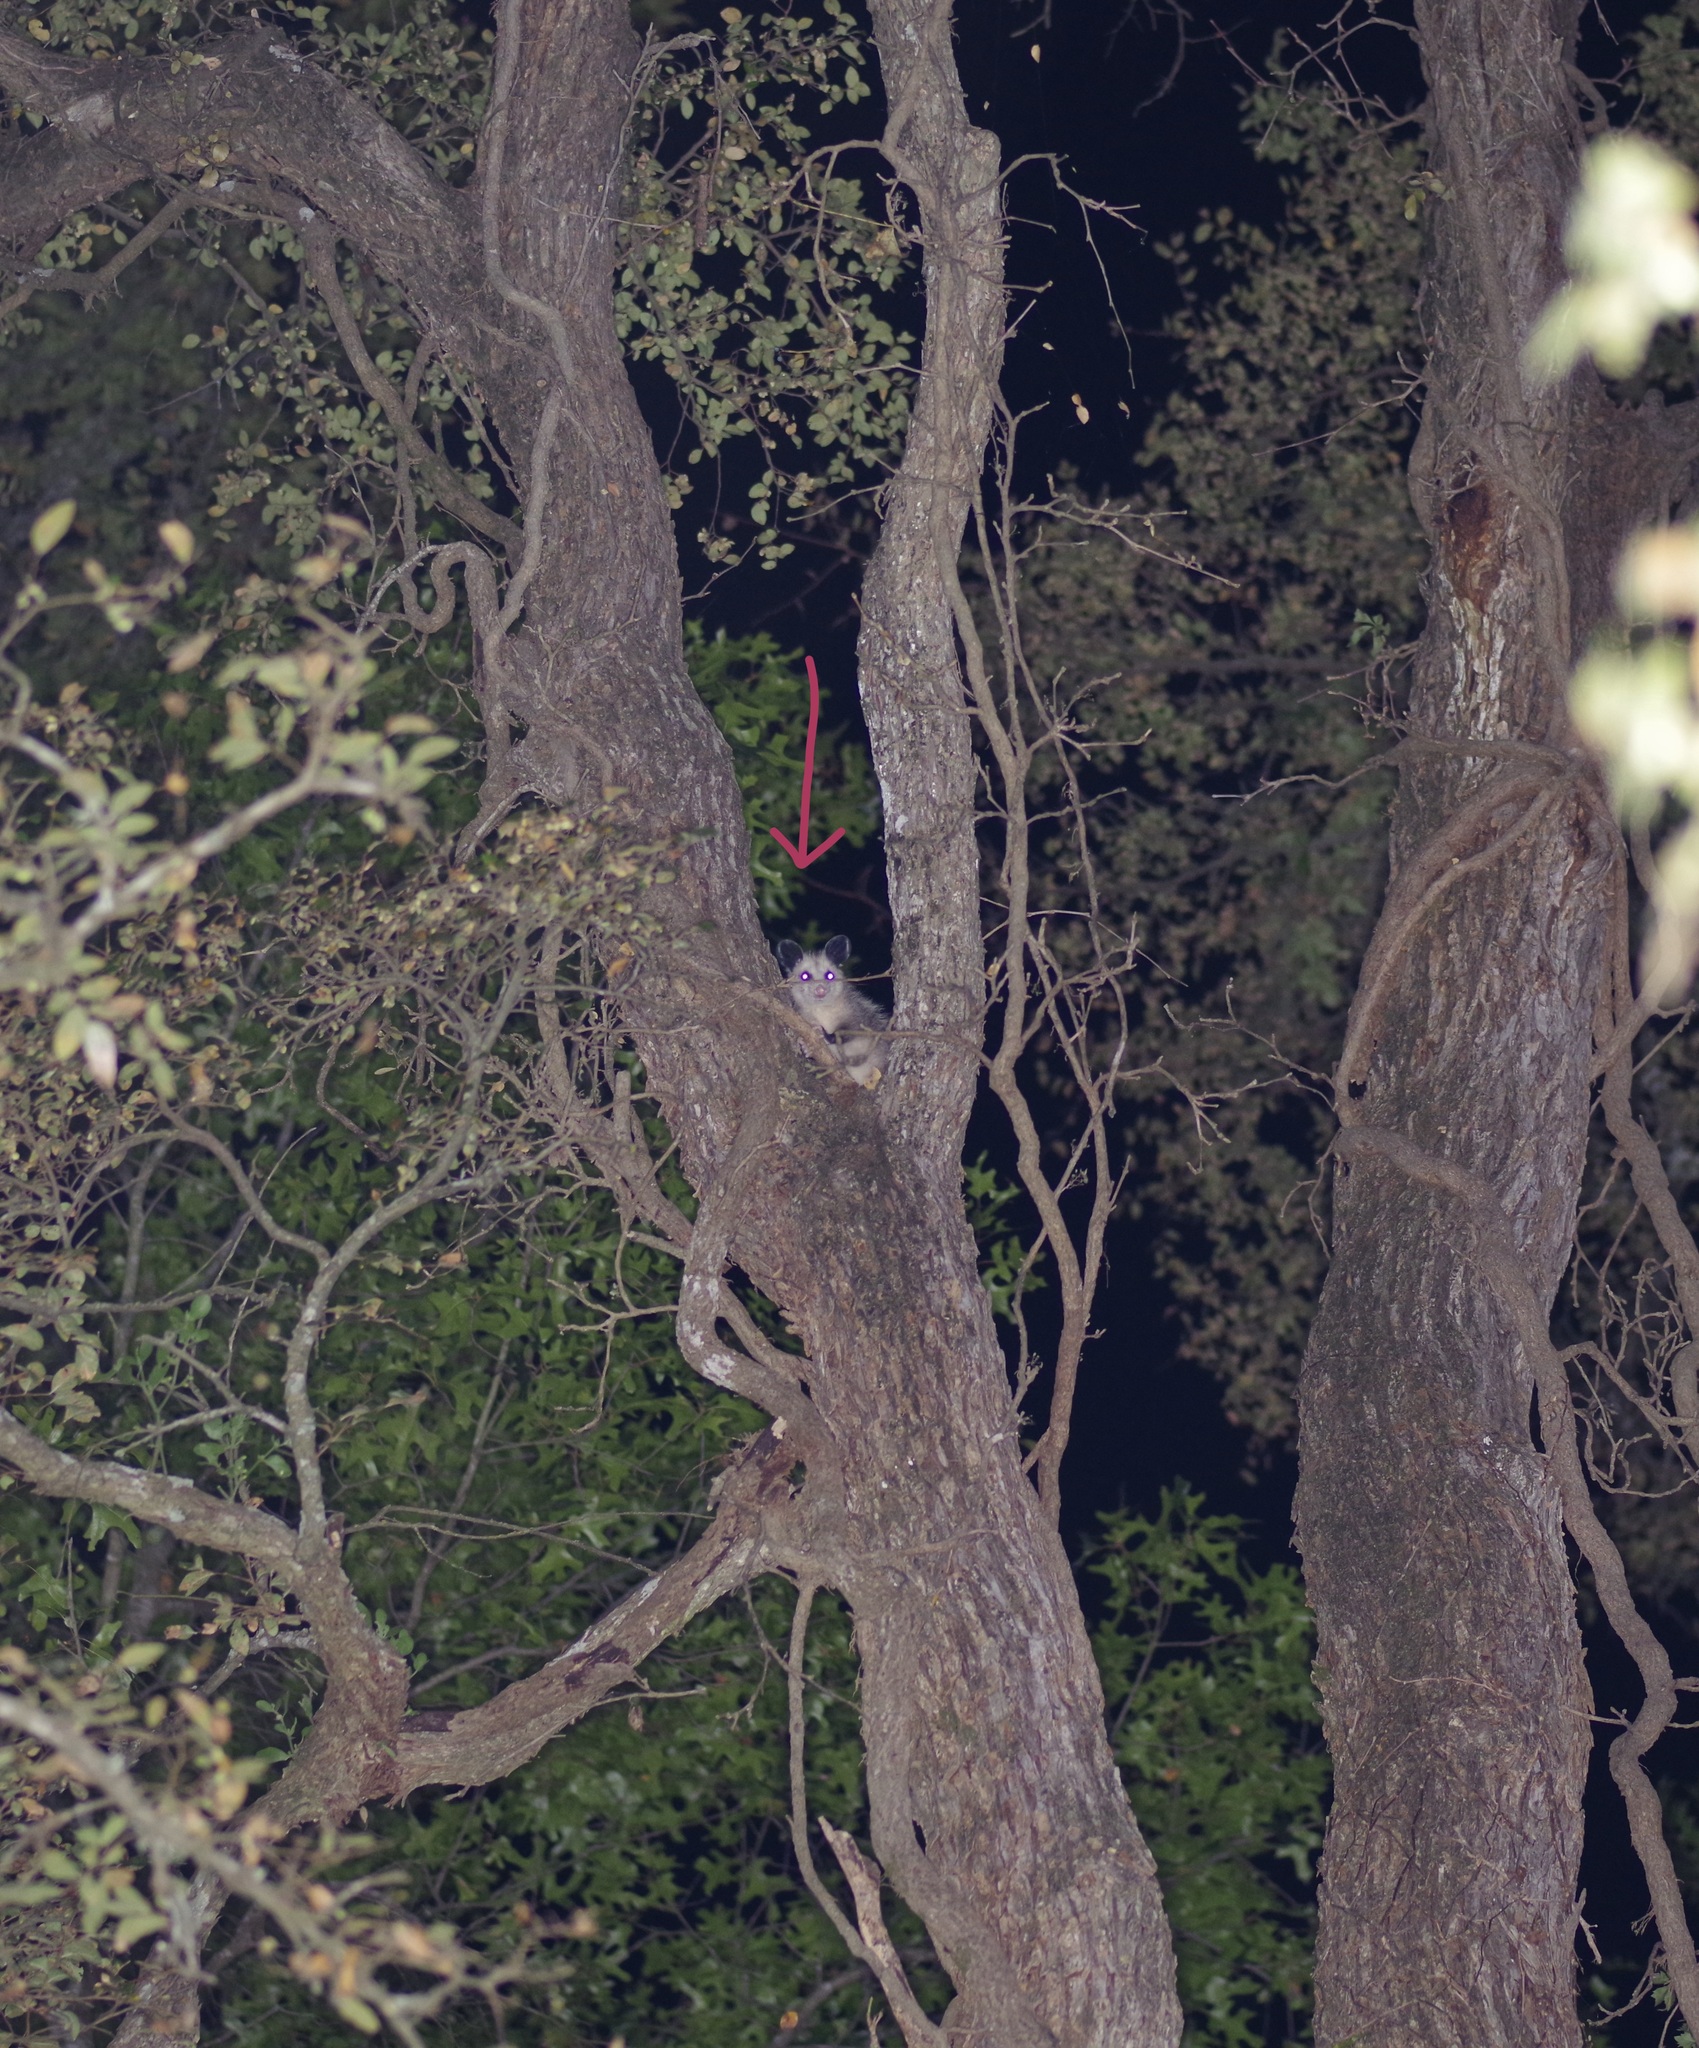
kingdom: Animalia
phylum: Chordata
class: Mammalia
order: Didelphimorphia
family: Didelphidae
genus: Didelphis
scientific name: Didelphis virginiana
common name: Virginia opossum
